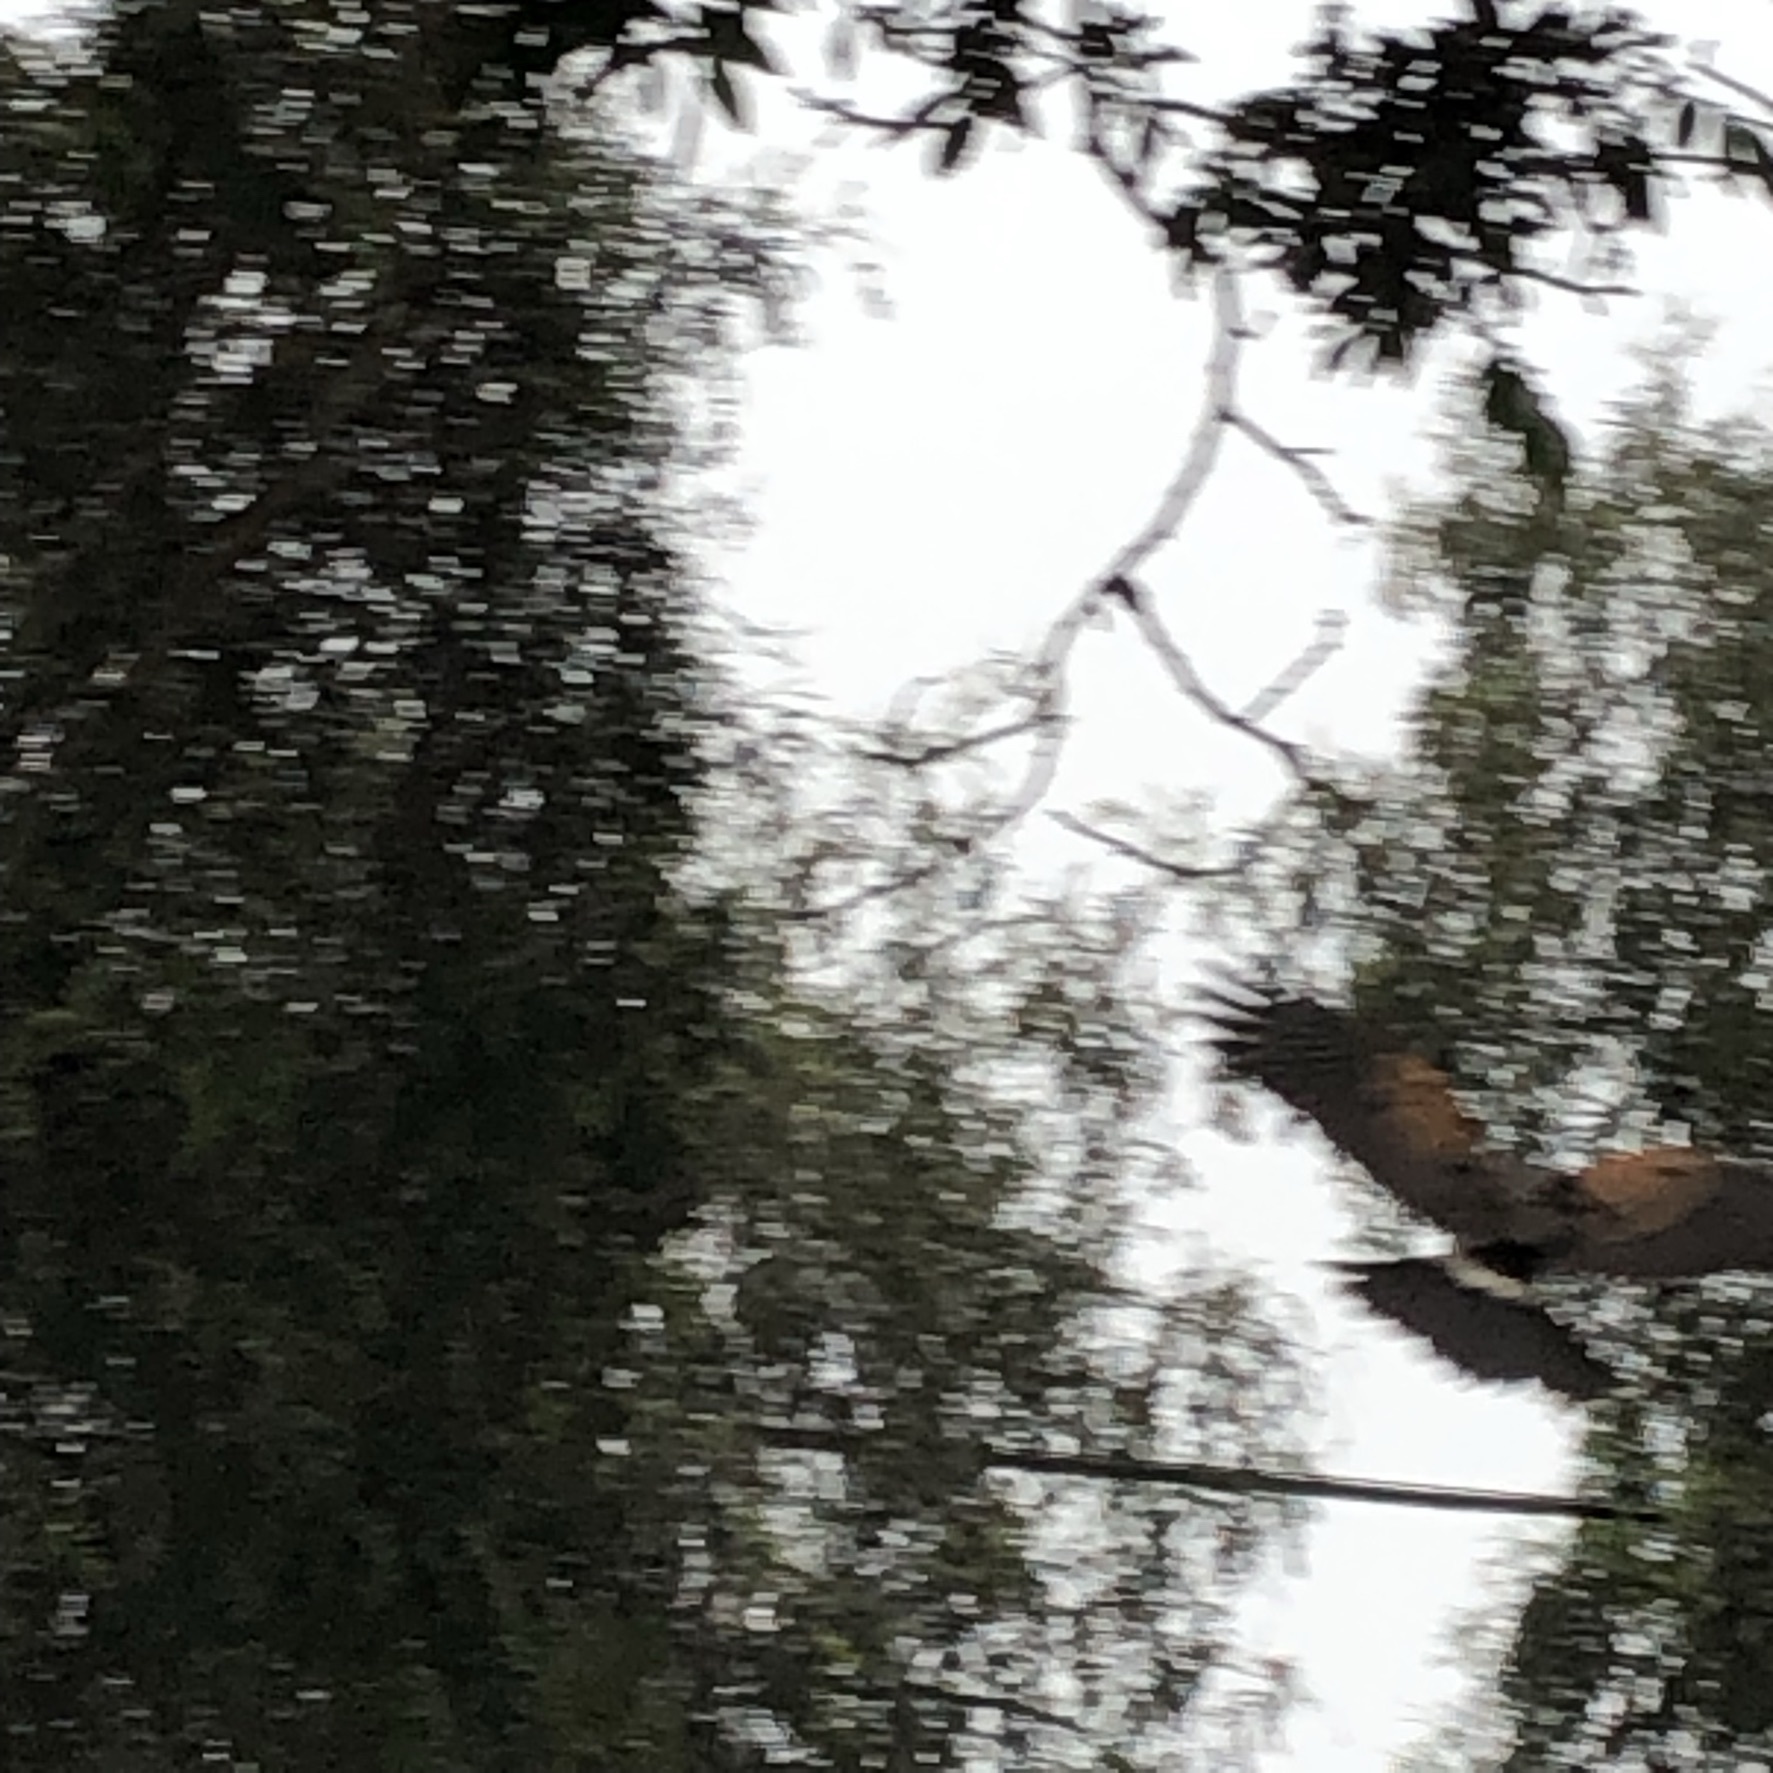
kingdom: Animalia
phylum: Chordata
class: Aves
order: Accipitriformes
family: Accipitridae
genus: Parabuteo
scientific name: Parabuteo unicinctus
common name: Harris's hawk
